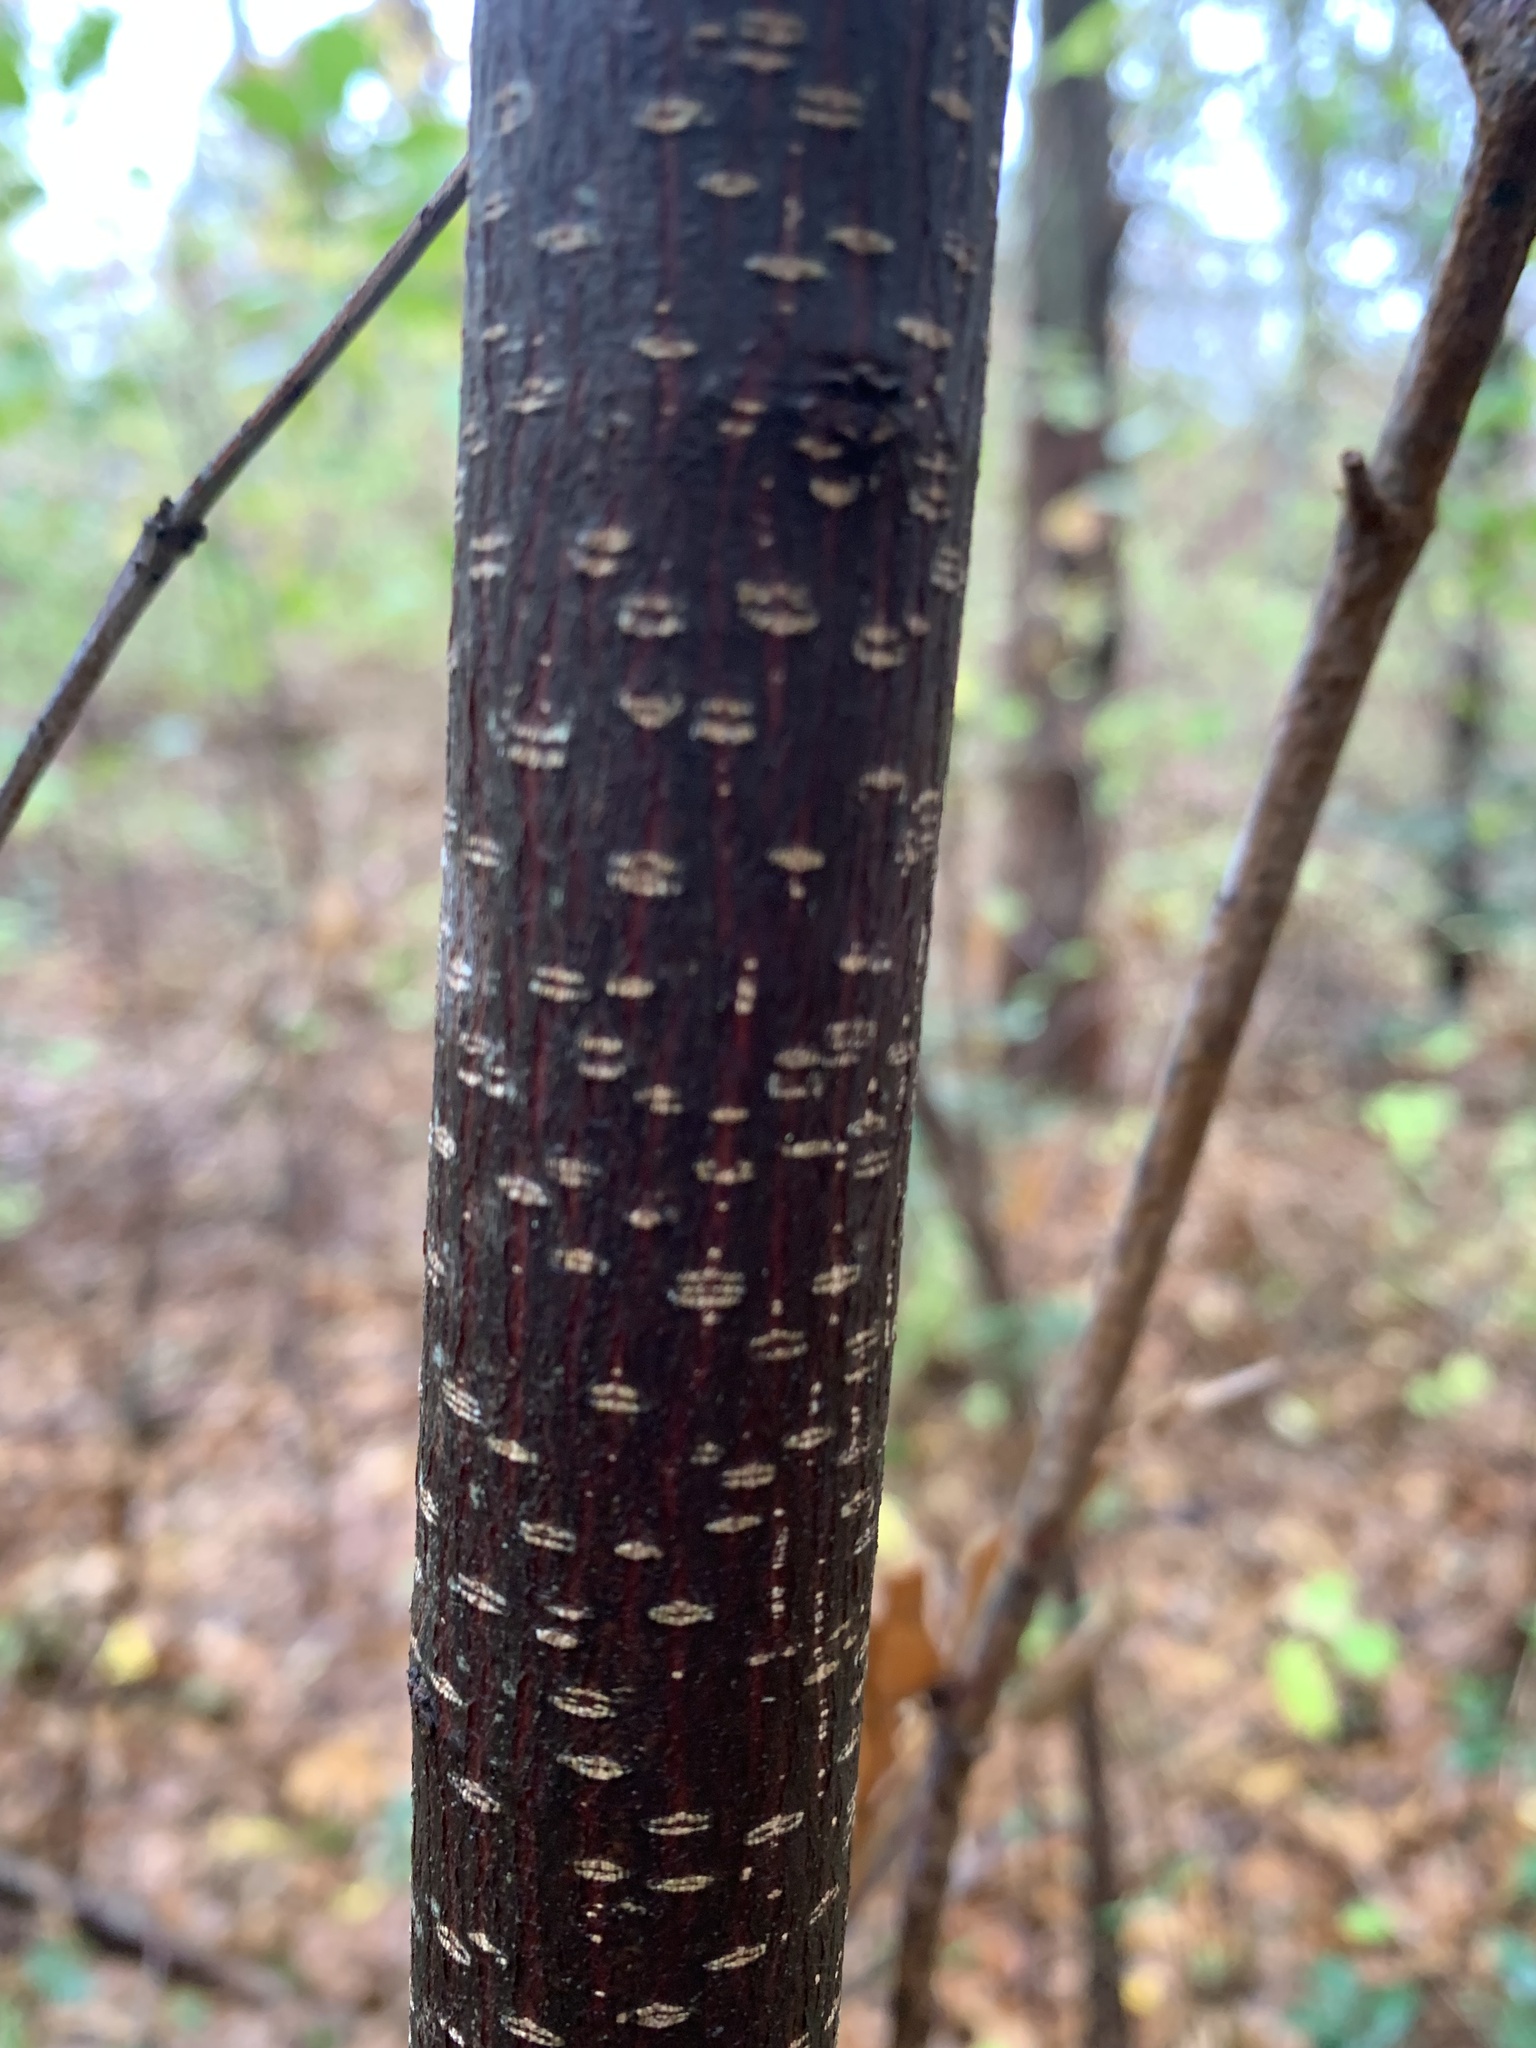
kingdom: Plantae
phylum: Tracheophyta
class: Magnoliopsida
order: Rosales
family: Rhamnaceae
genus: Frangula
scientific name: Frangula alnus
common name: Alder buckthorn
